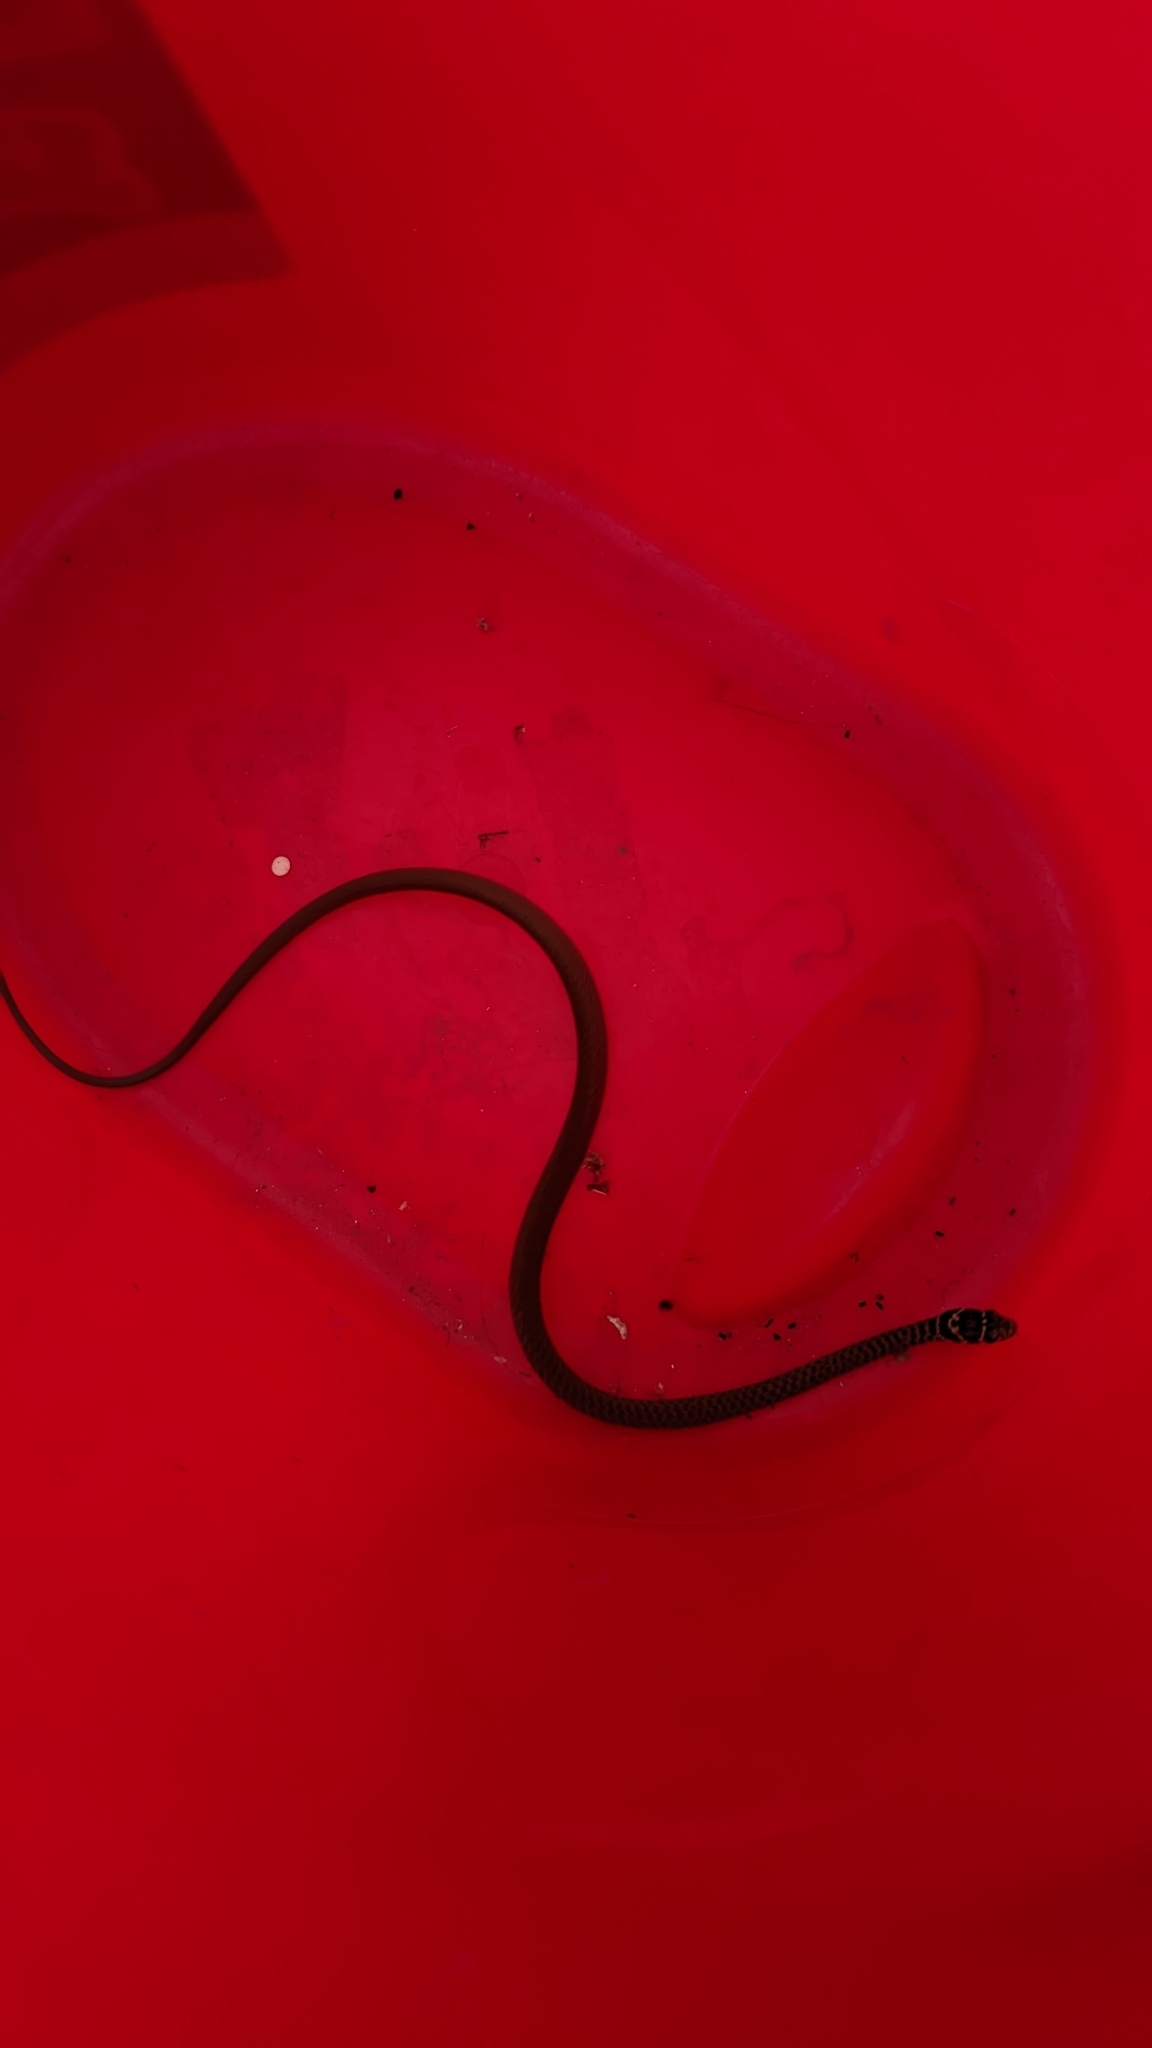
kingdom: Animalia
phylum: Chordata
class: Squamata
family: Colubridae
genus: Hierophis
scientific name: Hierophis viridiflavus
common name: Green whip snake
